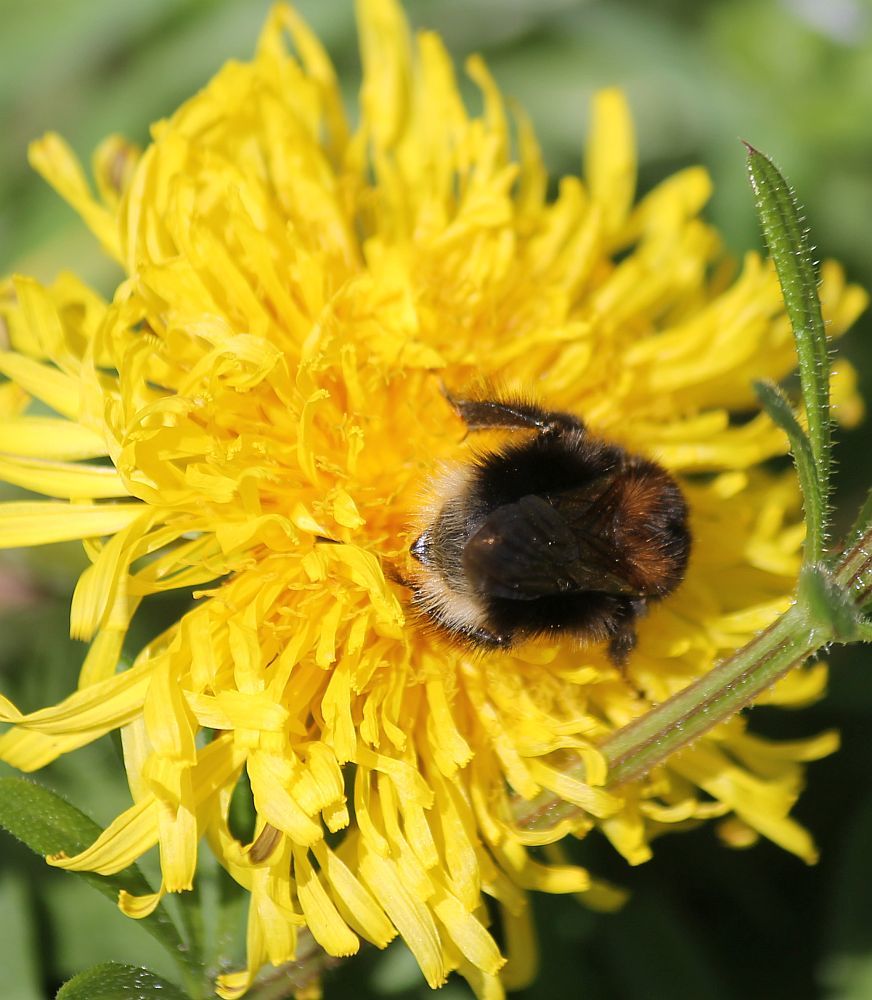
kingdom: Animalia
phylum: Arthropoda
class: Insecta
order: Hymenoptera
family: Apidae
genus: Bombus
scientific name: Bombus hypnorum
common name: New garden bumblebee
